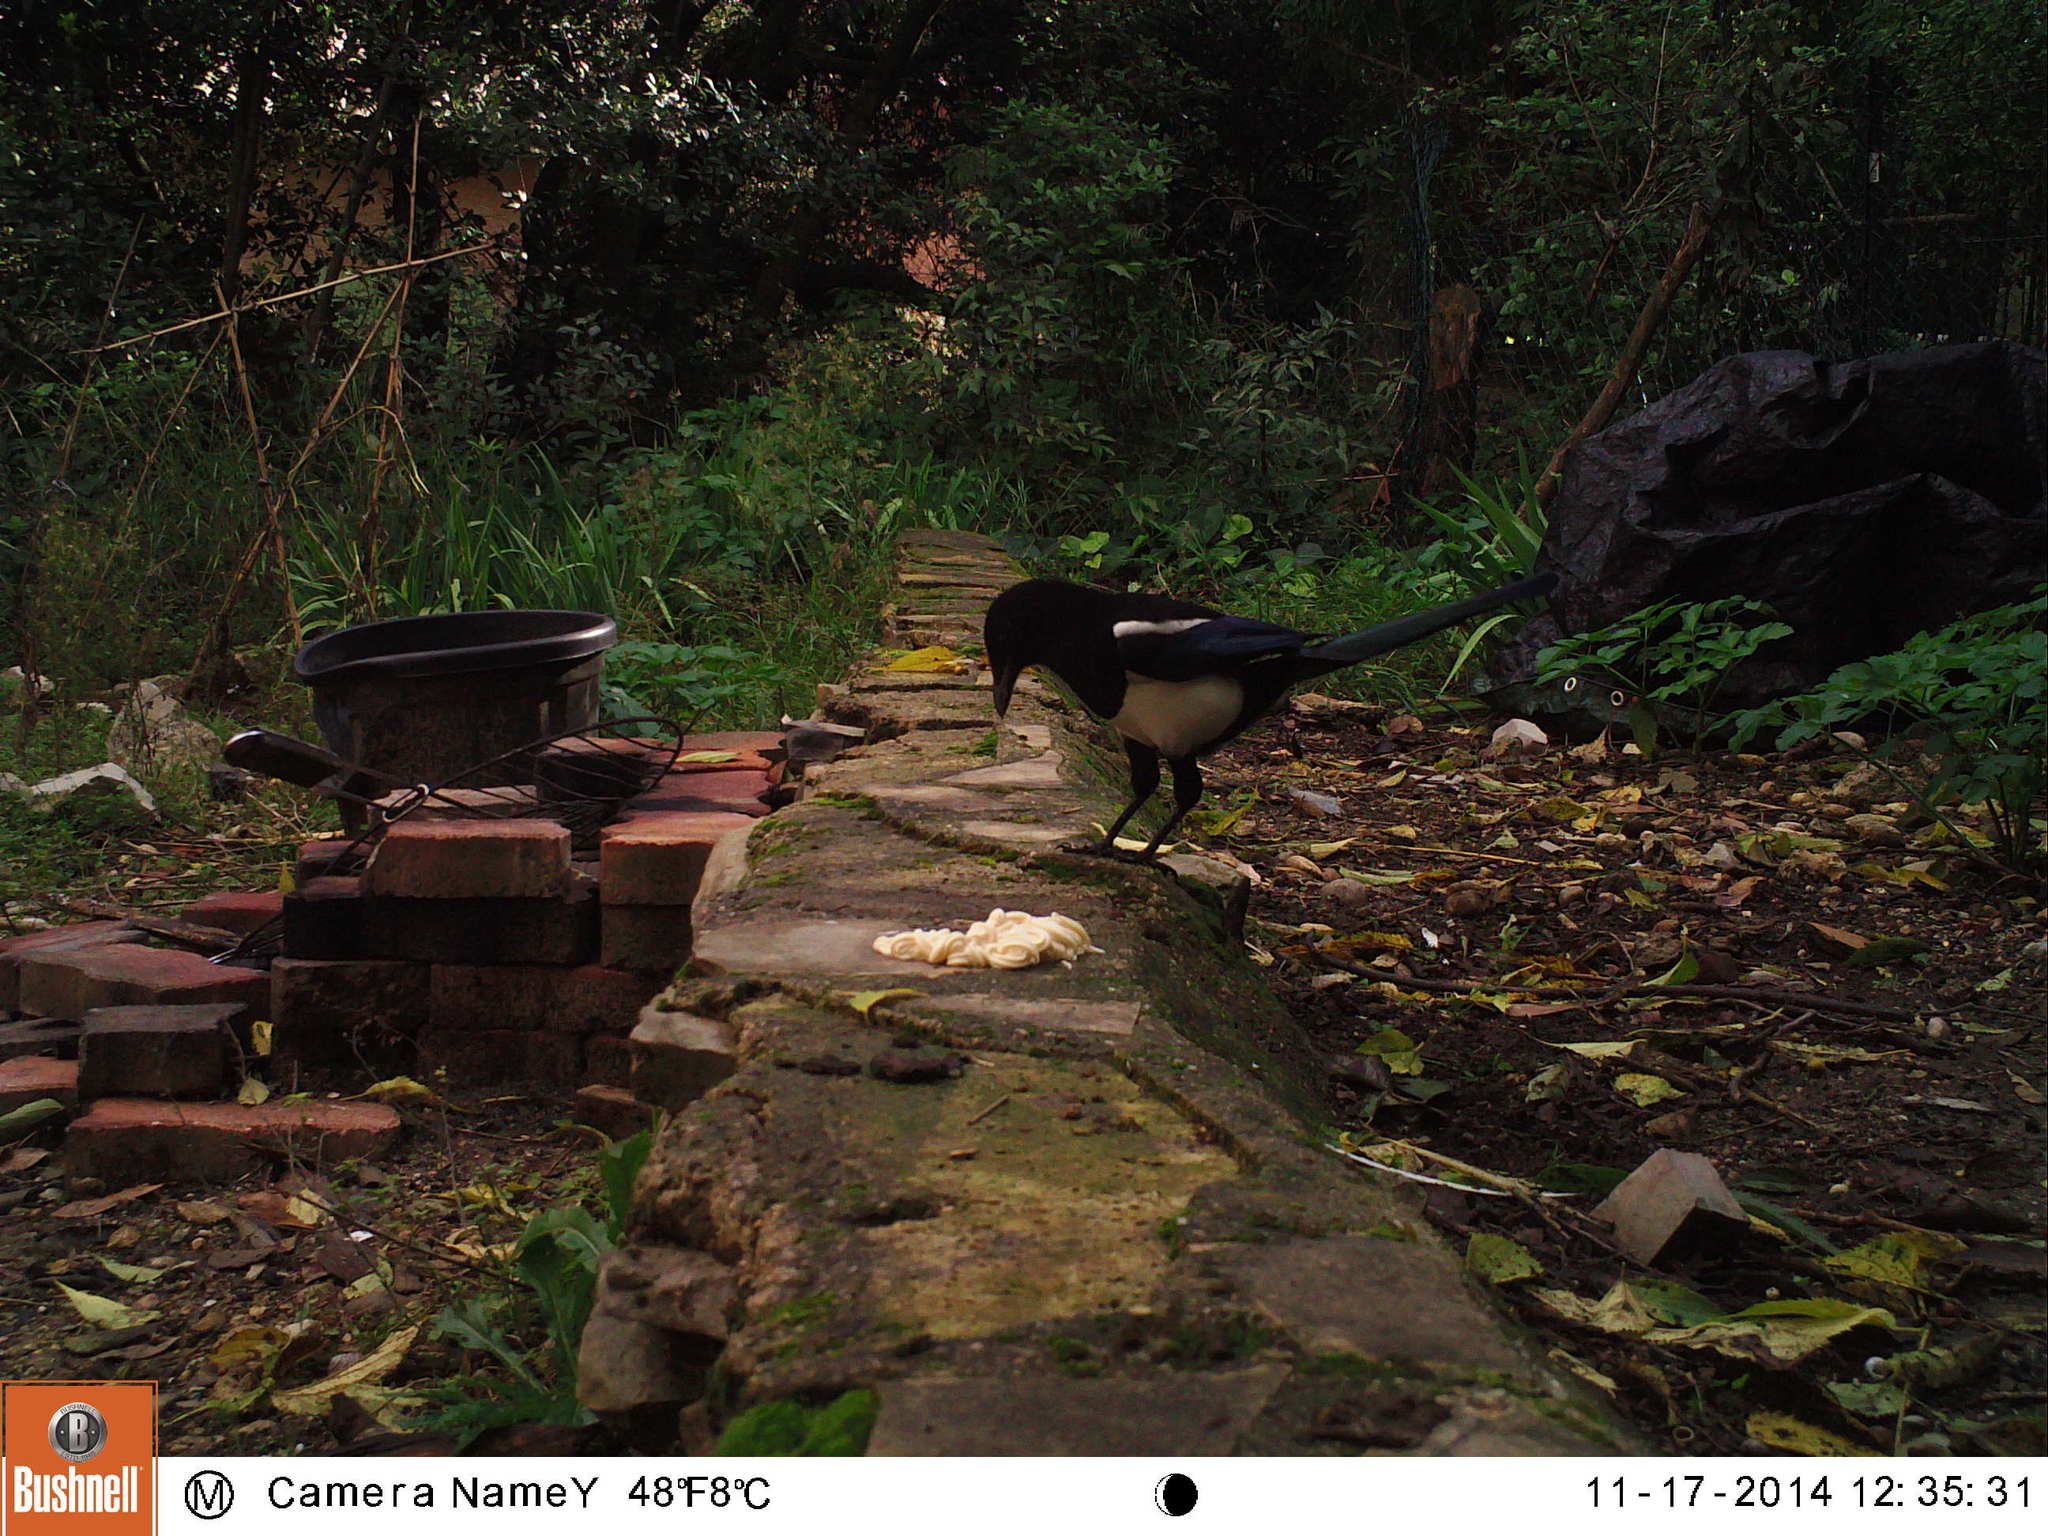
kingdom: Animalia
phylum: Chordata
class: Aves
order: Passeriformes
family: Corvidae
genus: Pica
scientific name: Pica pica
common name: Eurasian magpie
